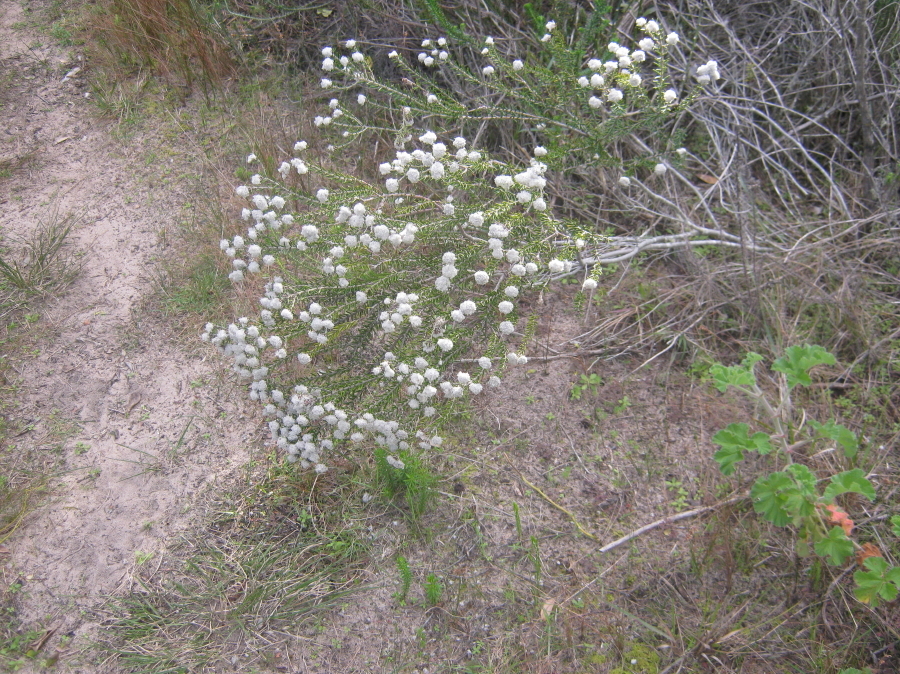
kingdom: Plantae
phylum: Tracheophyta
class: Magnoliopsida
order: Rosales
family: Rhamnaceae
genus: Trichocephalus
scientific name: Trichocephalus stipularis
